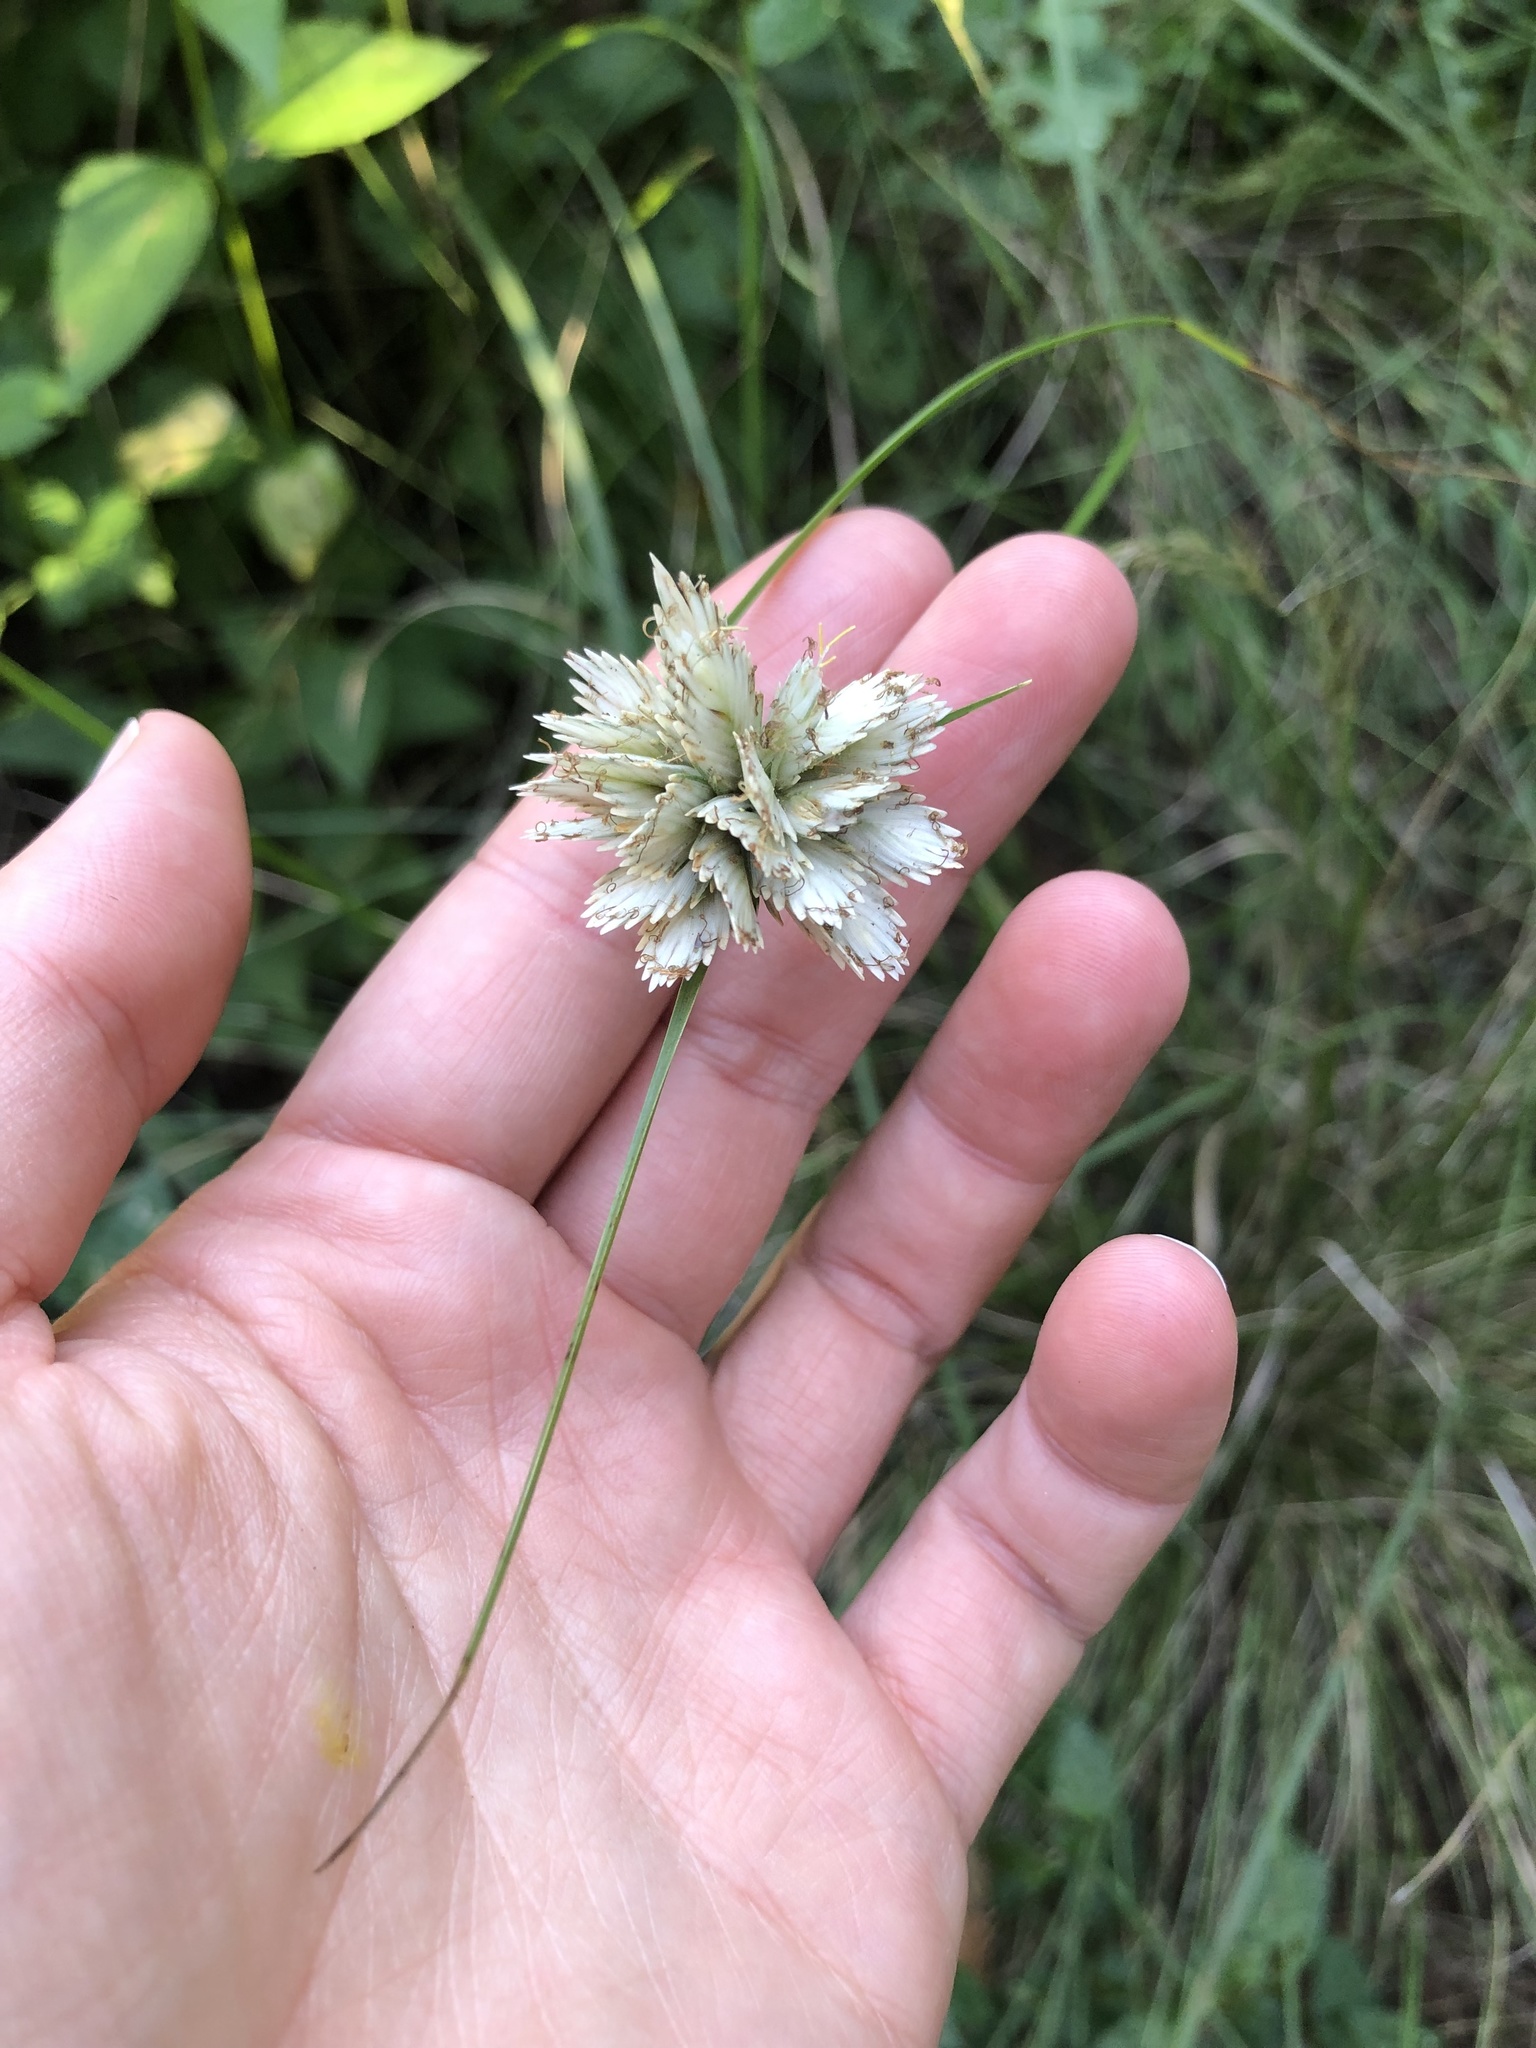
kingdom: Plantae
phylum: Tracheophyta
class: Liliopsida
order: Poales
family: Cyperaceae
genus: Cyperus
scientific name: Cyperus niveus
